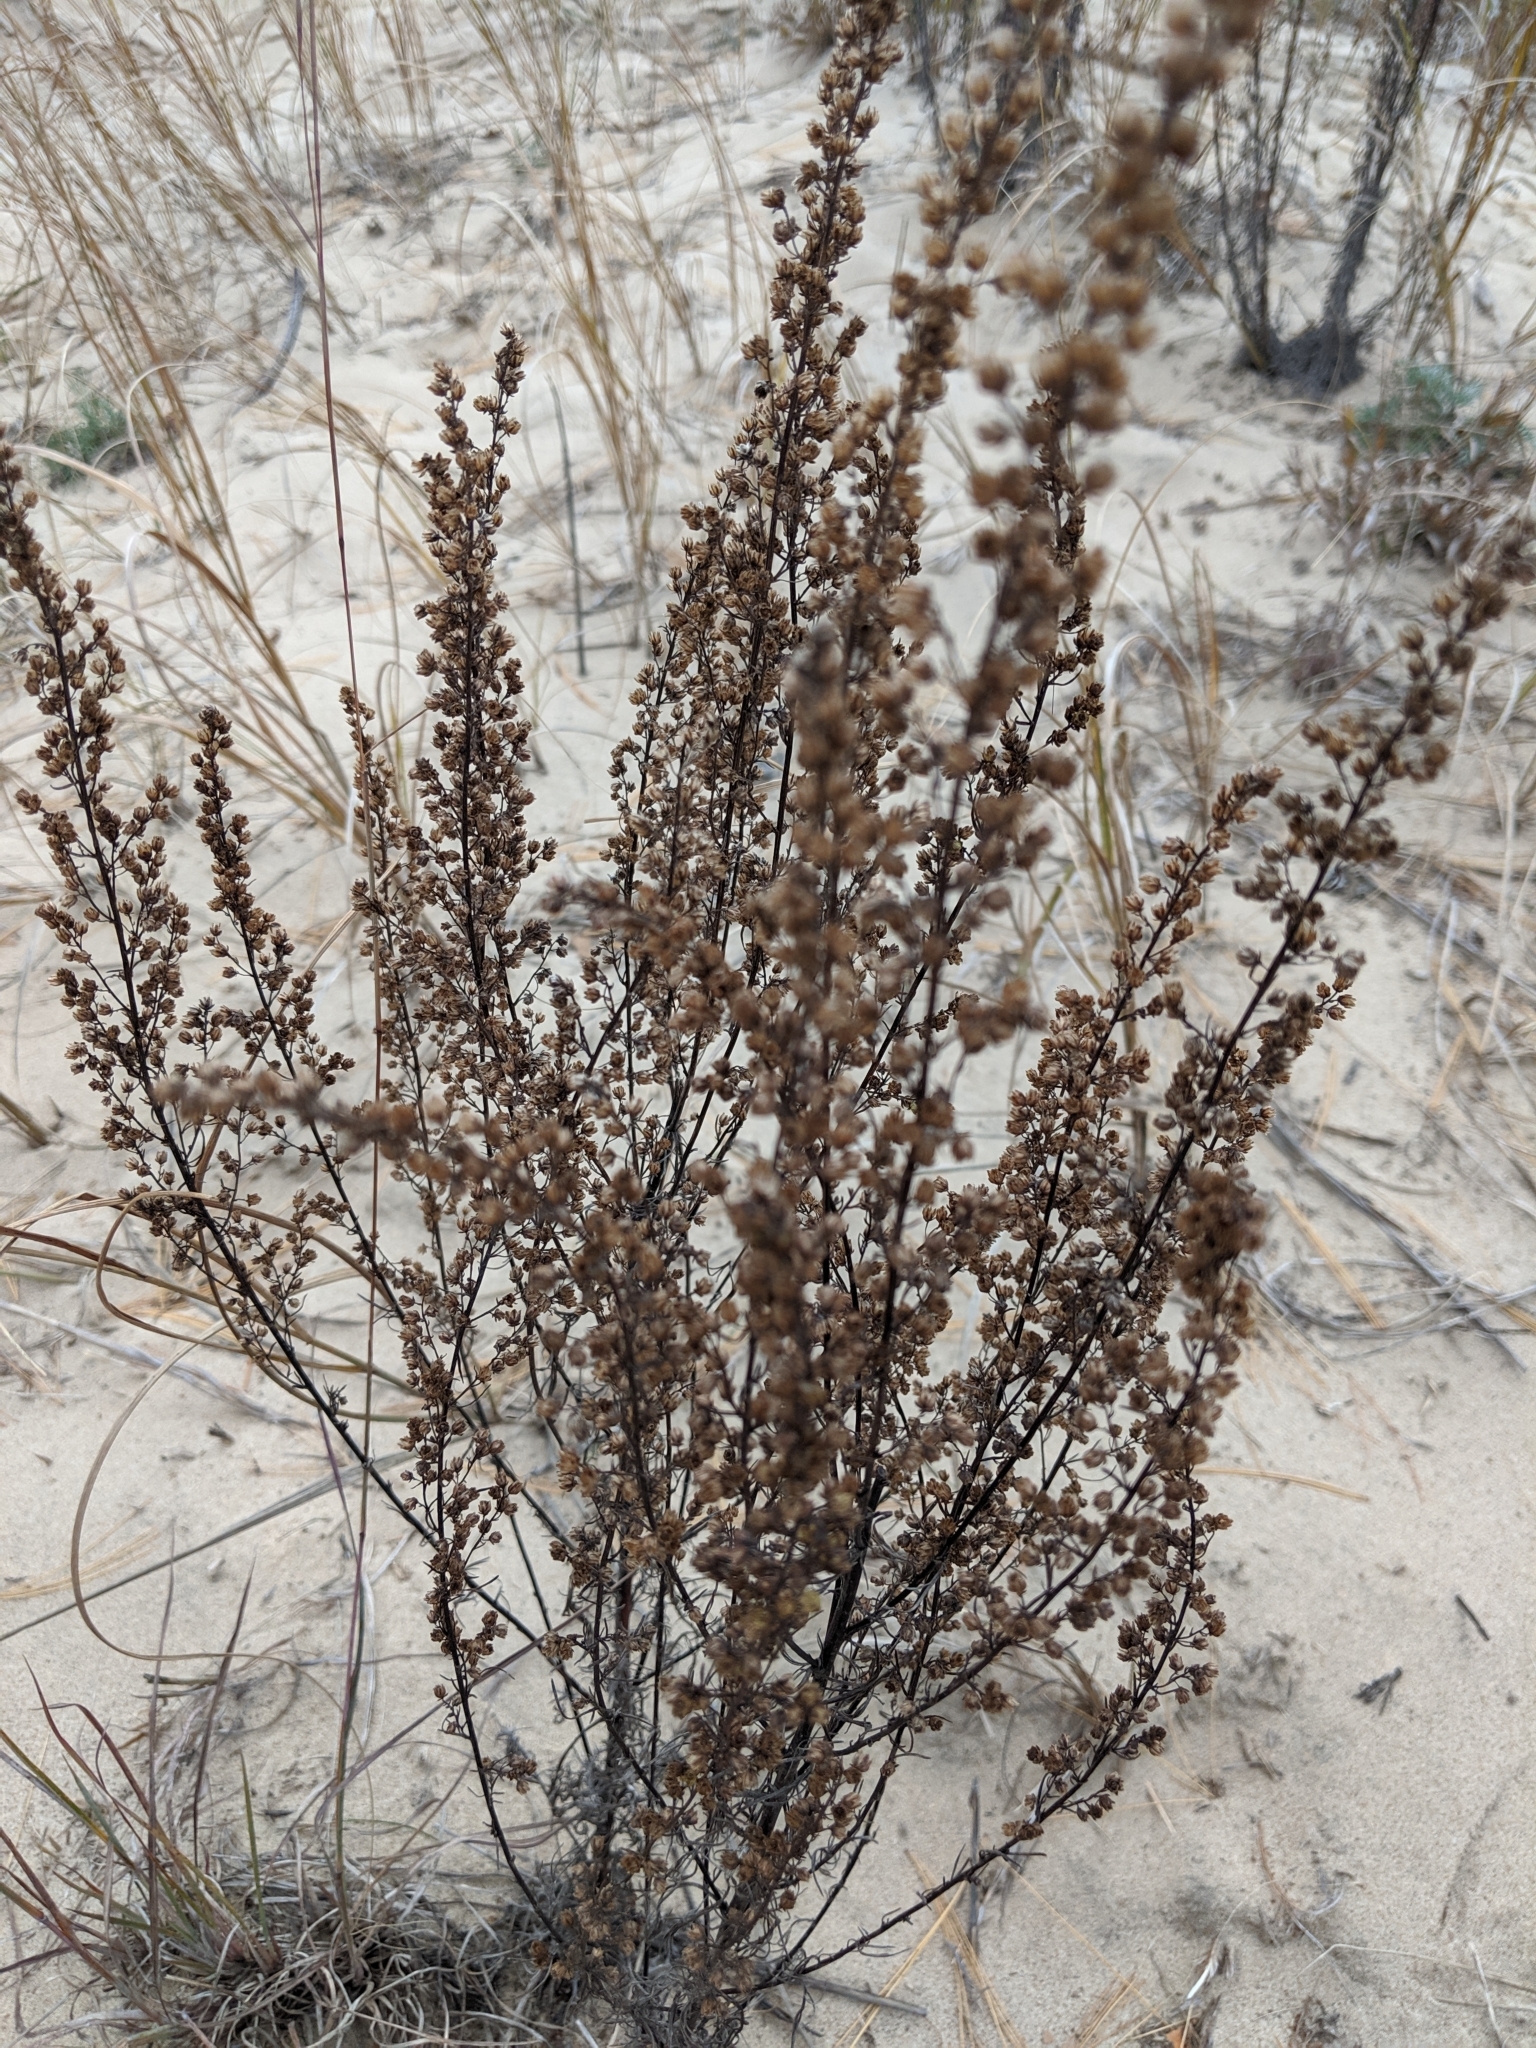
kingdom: Plantae
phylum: Tracheophyta
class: Magnoliopsida
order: Asterales
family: Asteraceae
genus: Artemisia
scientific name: Artemisia campestris
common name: Field wormwood
